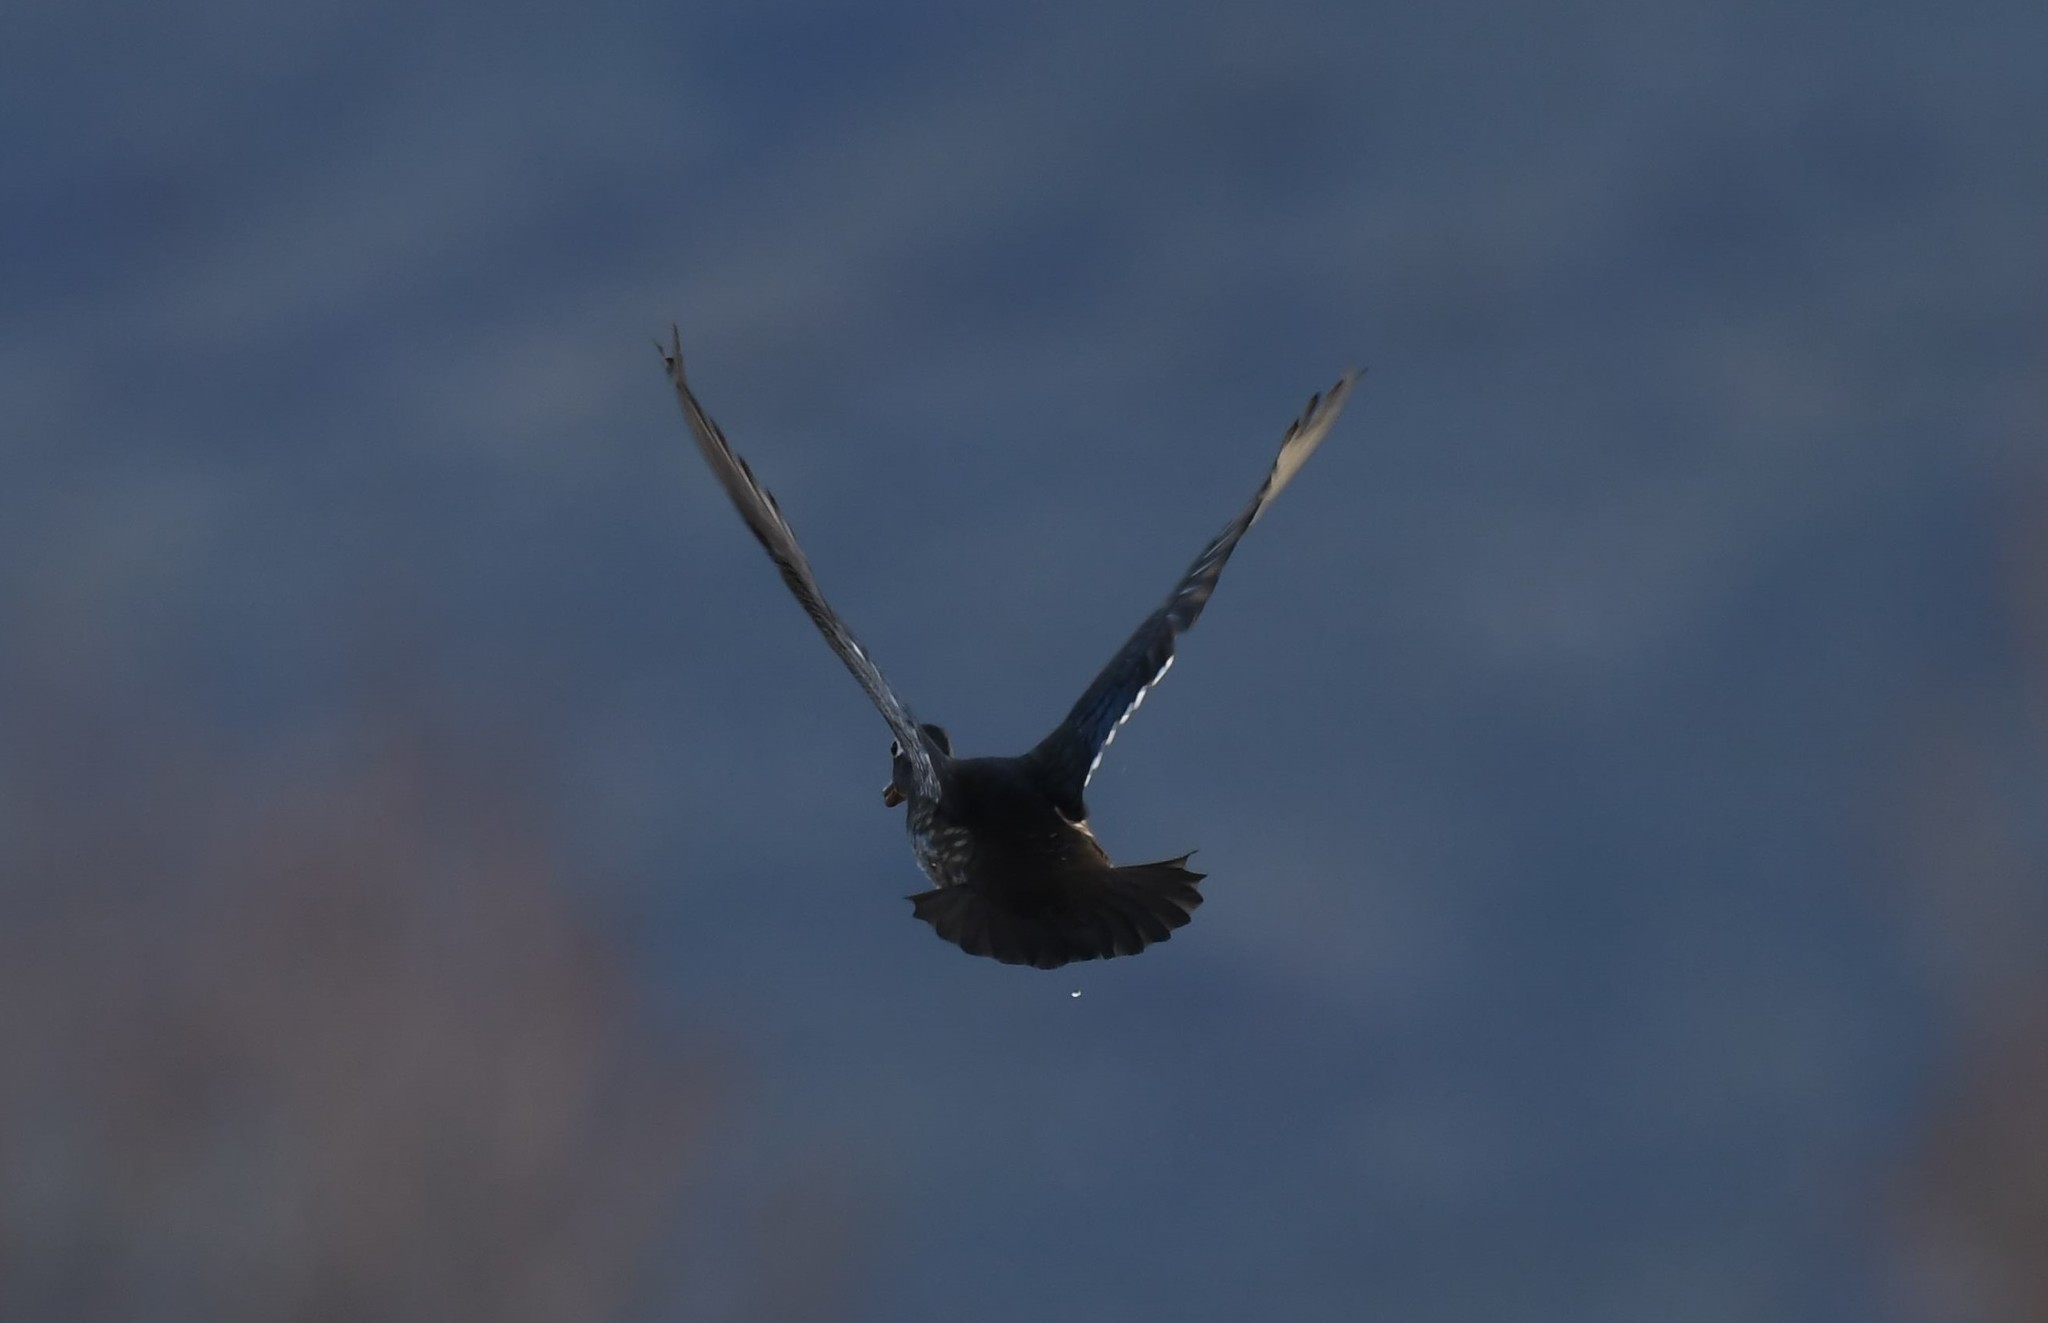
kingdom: Animalia
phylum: Chordata
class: Aves
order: Anseriformes
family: Anatidae
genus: Aix
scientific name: Aix sponsa
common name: Wood duck
